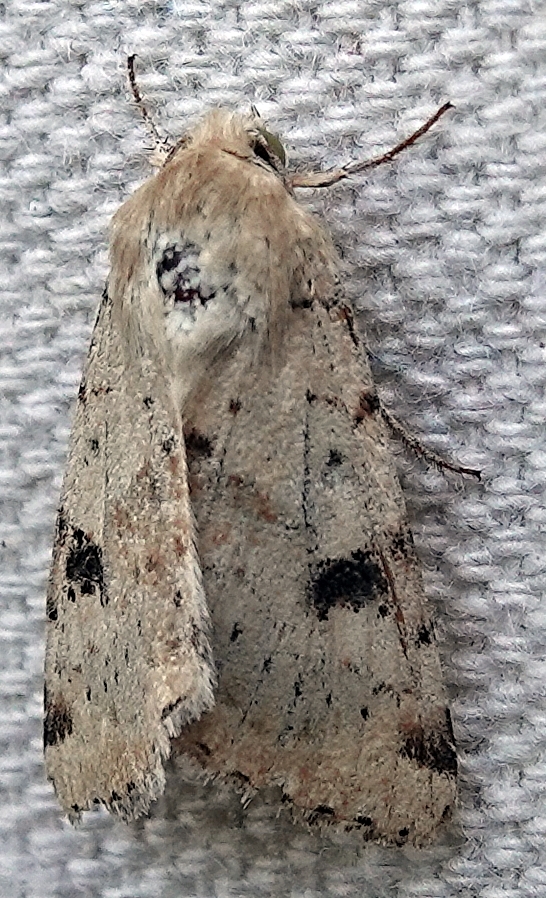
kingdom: Animalia
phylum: Arthropoda
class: Insecta
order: Lepidoptera
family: Noctuidae
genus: Heliothis
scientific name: Heliothis phloxiphaga
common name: Darker spotted straw moth
